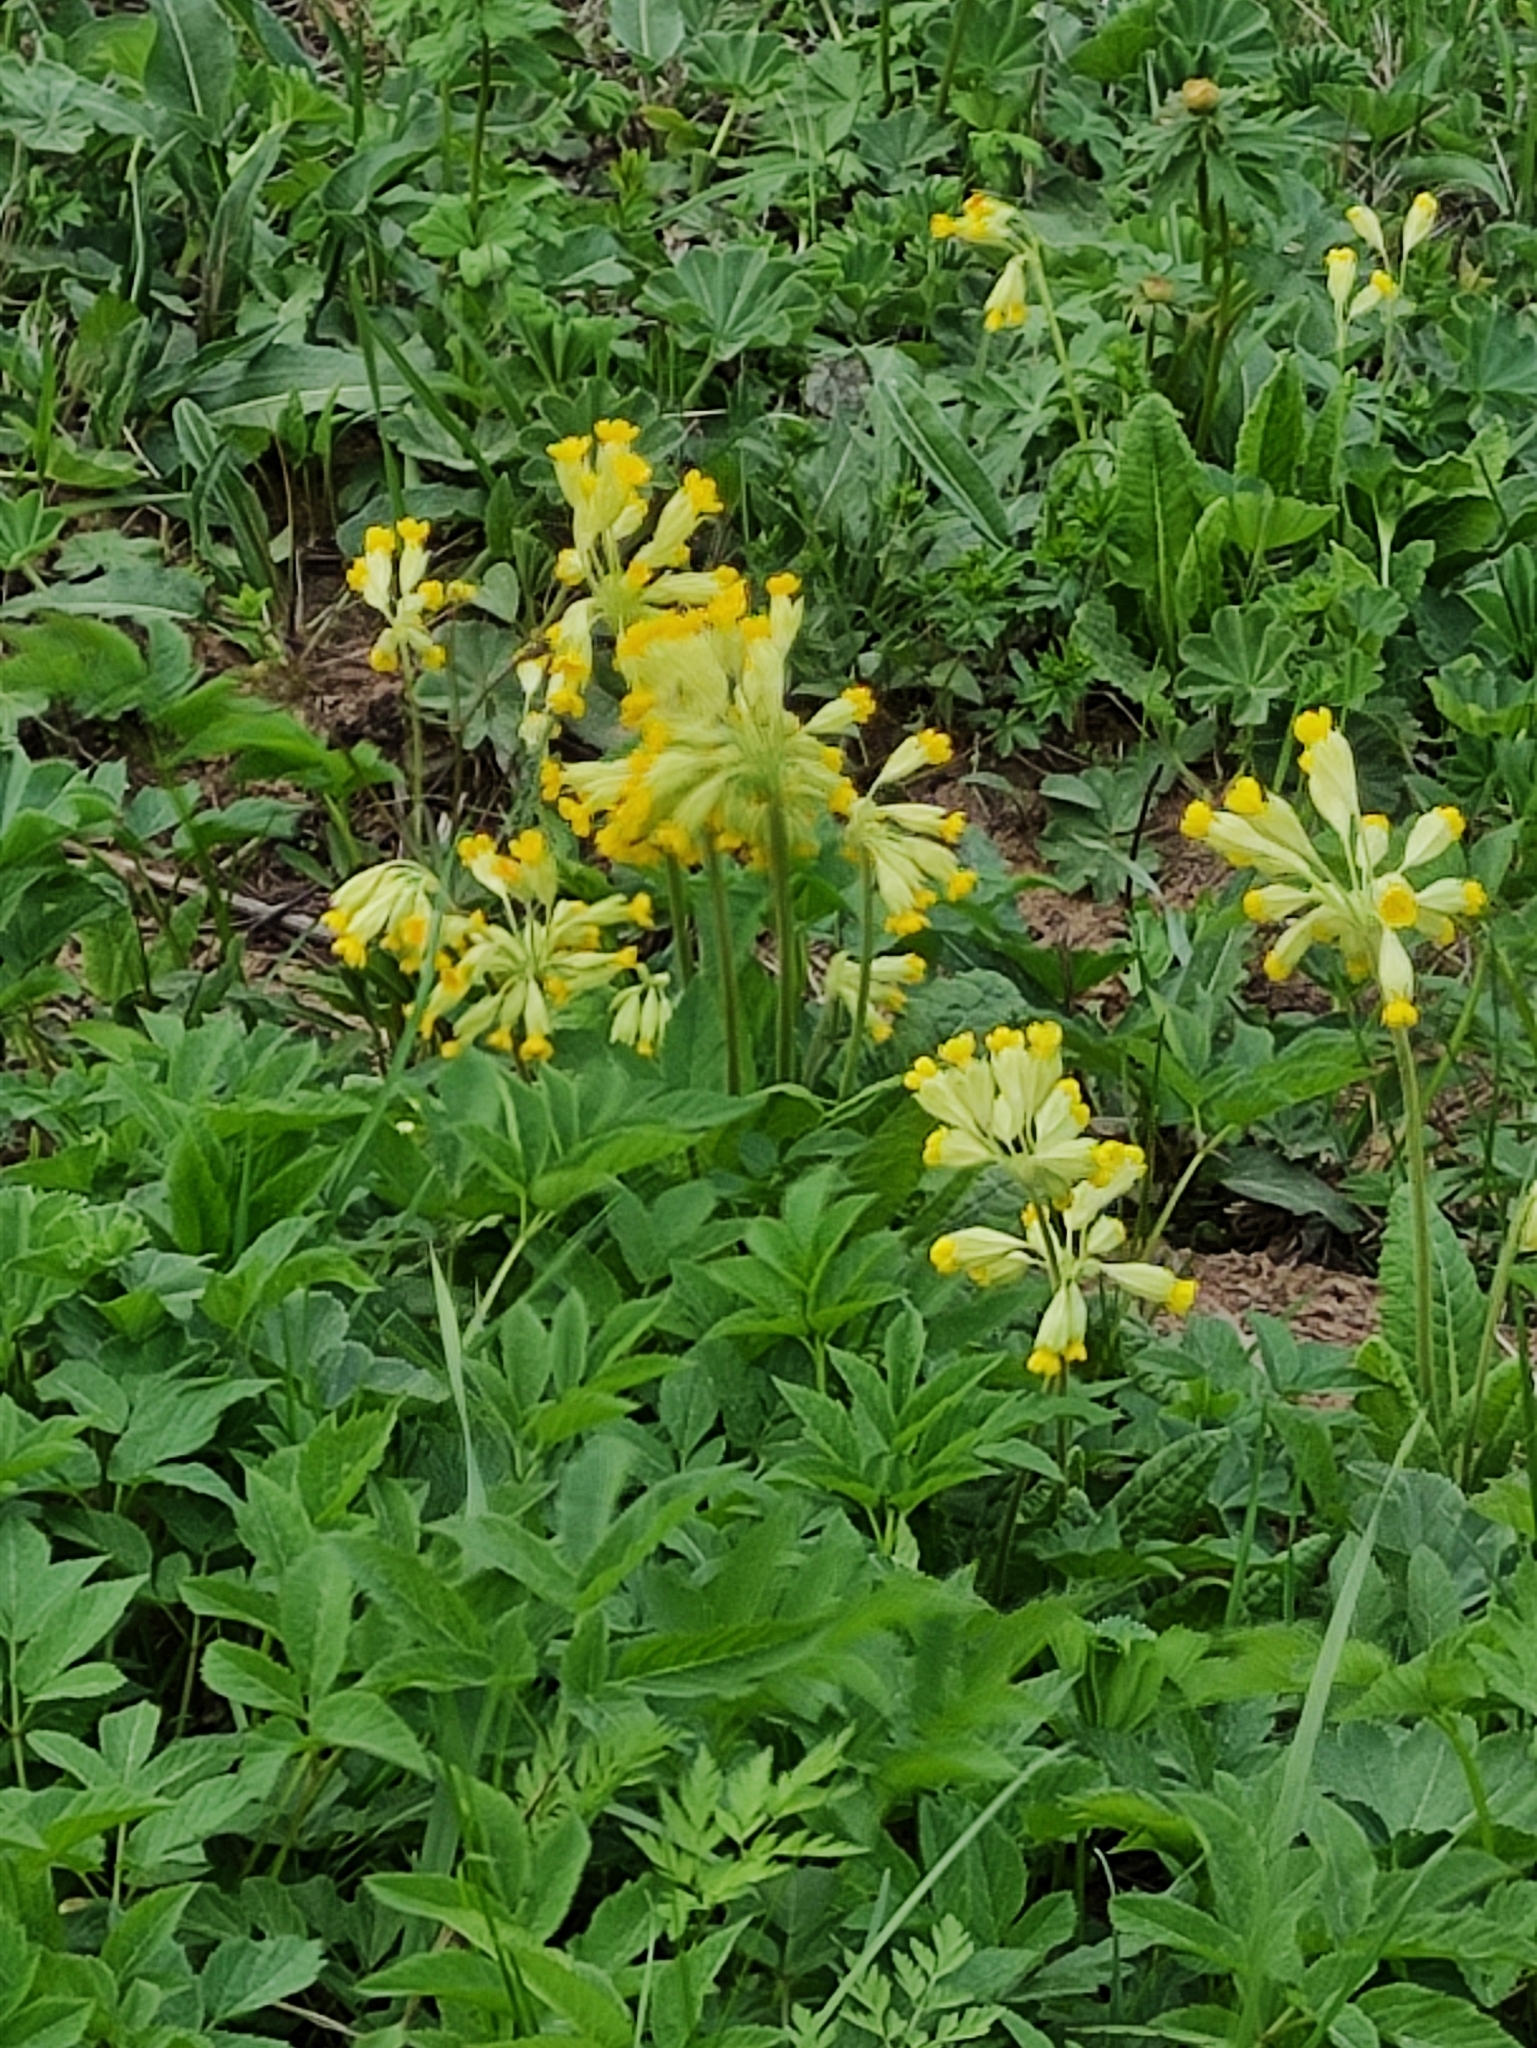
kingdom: Plantae
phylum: Tracheophyta
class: Magnoliopsida
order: Ericales
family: Primulaceae
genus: Primula
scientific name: Primula veris
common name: Cowslip
